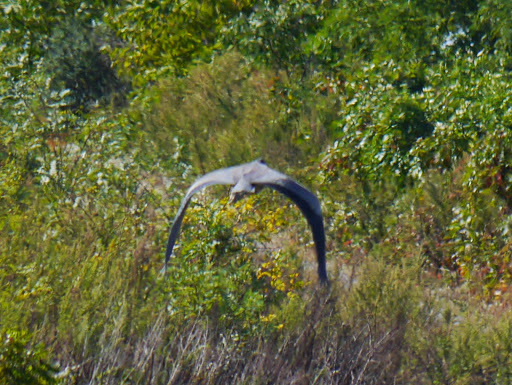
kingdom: Animalia
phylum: Chordata
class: Aves
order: Pelecaniformes
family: Ardeidae
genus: Ardea
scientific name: Ardea herodias
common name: Great blue heron
